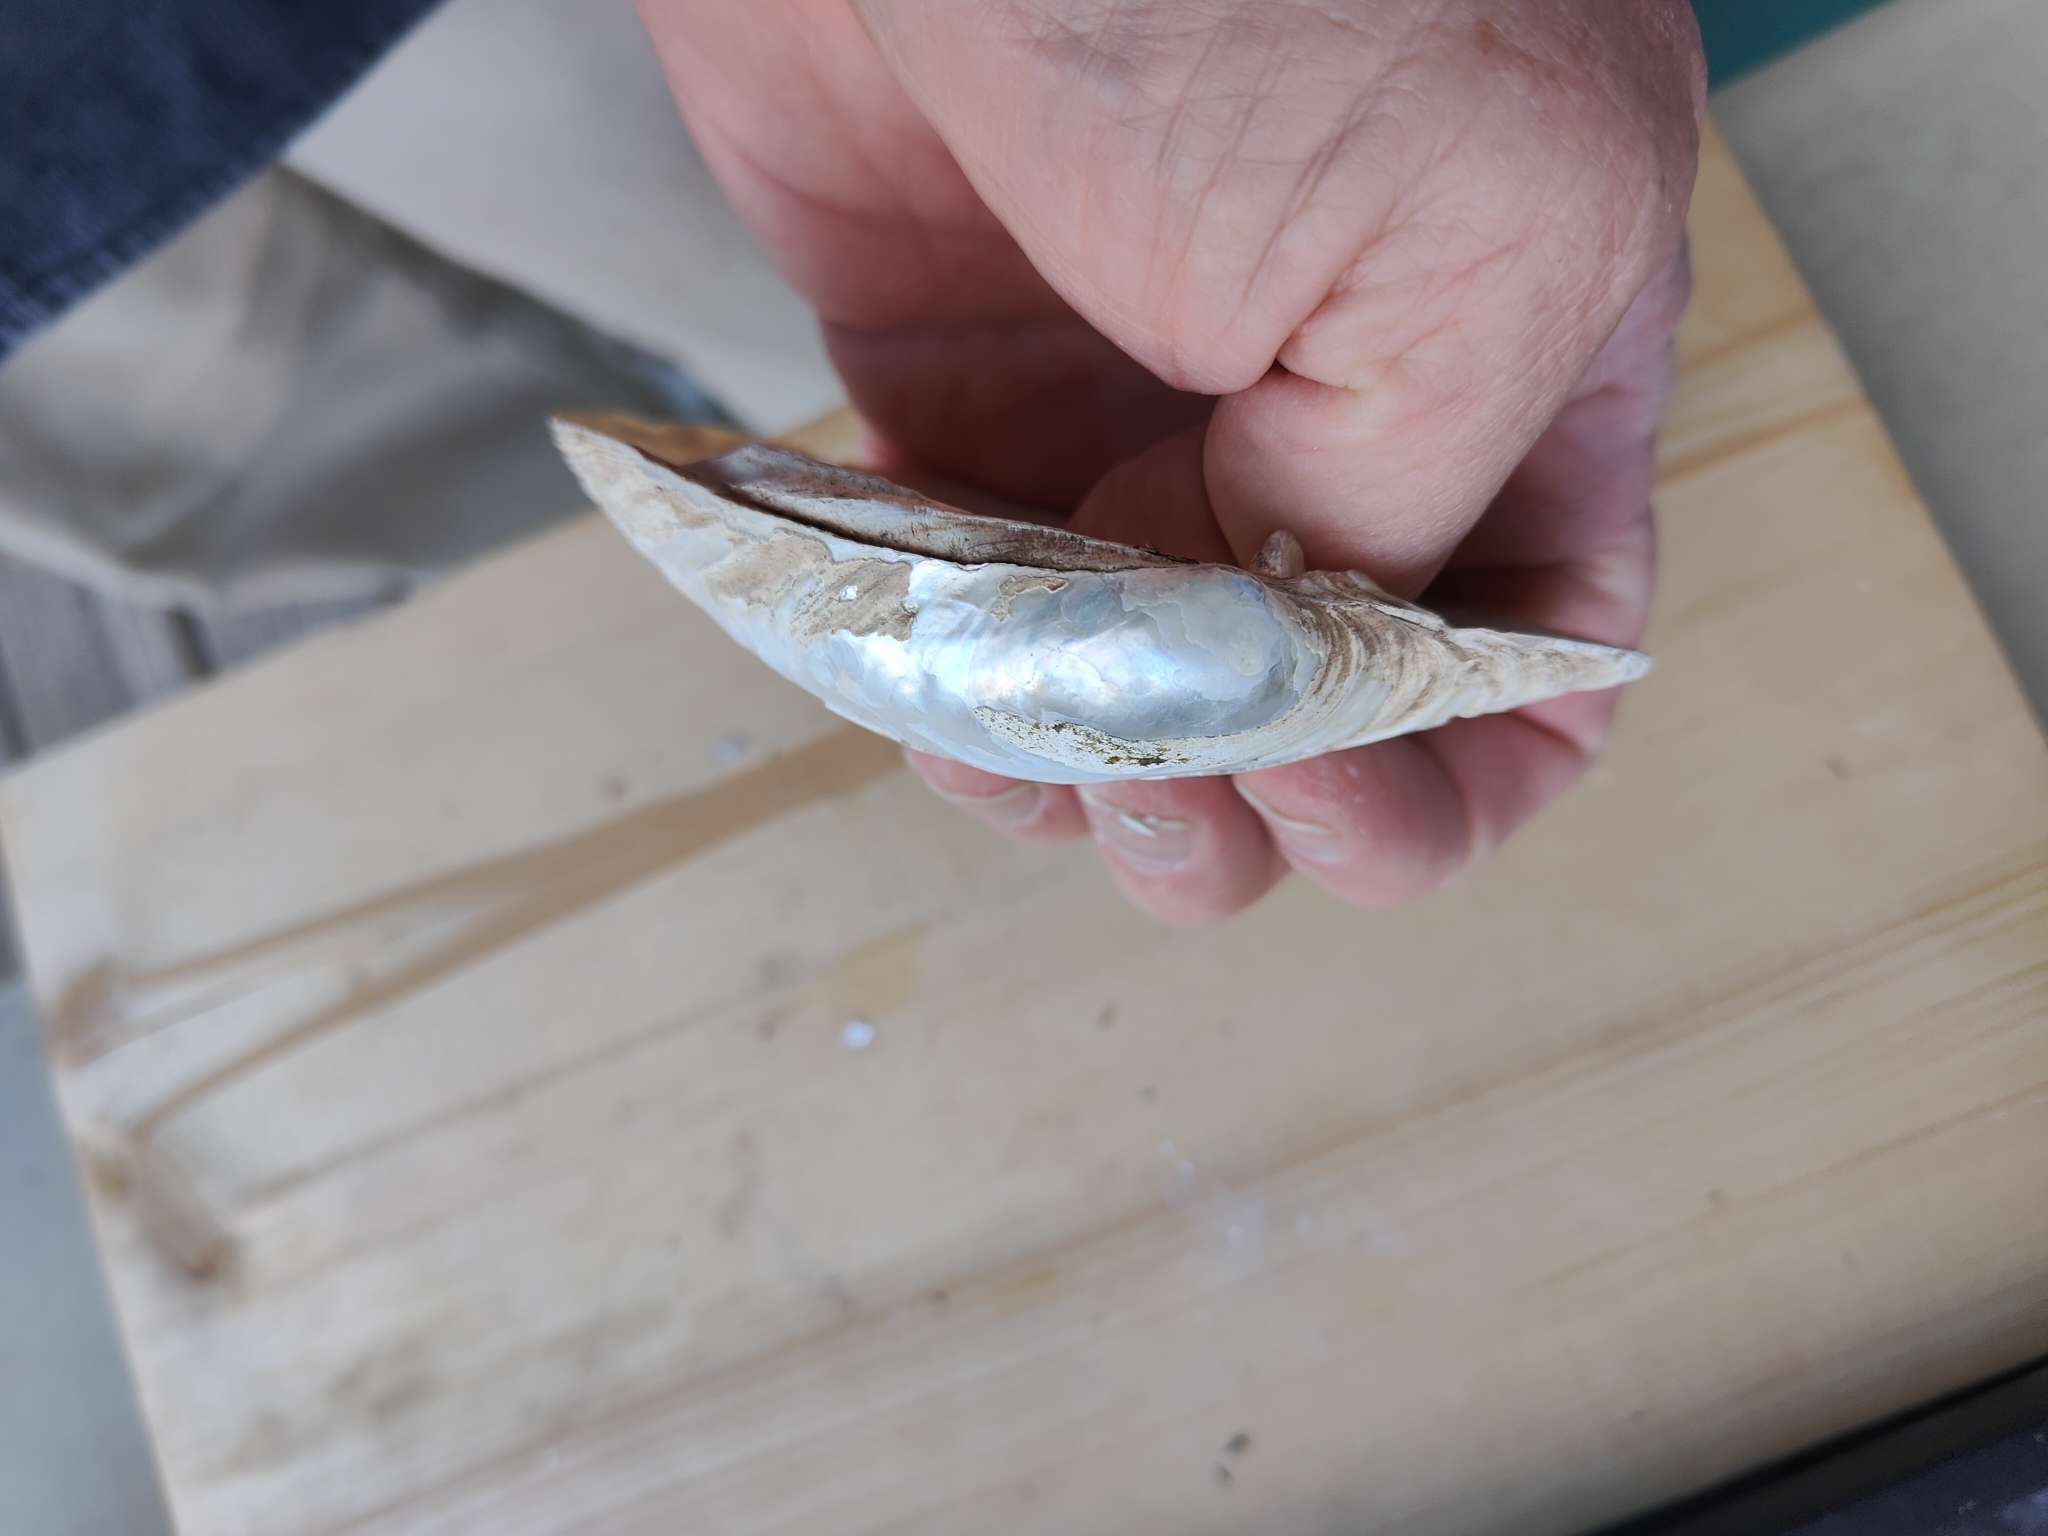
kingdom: Animalia
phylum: Mollusca
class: Bivalvia
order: Unionida
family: Unionidae
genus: Lampsilis
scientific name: Lampsilis cardium
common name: Plain pocketbook
